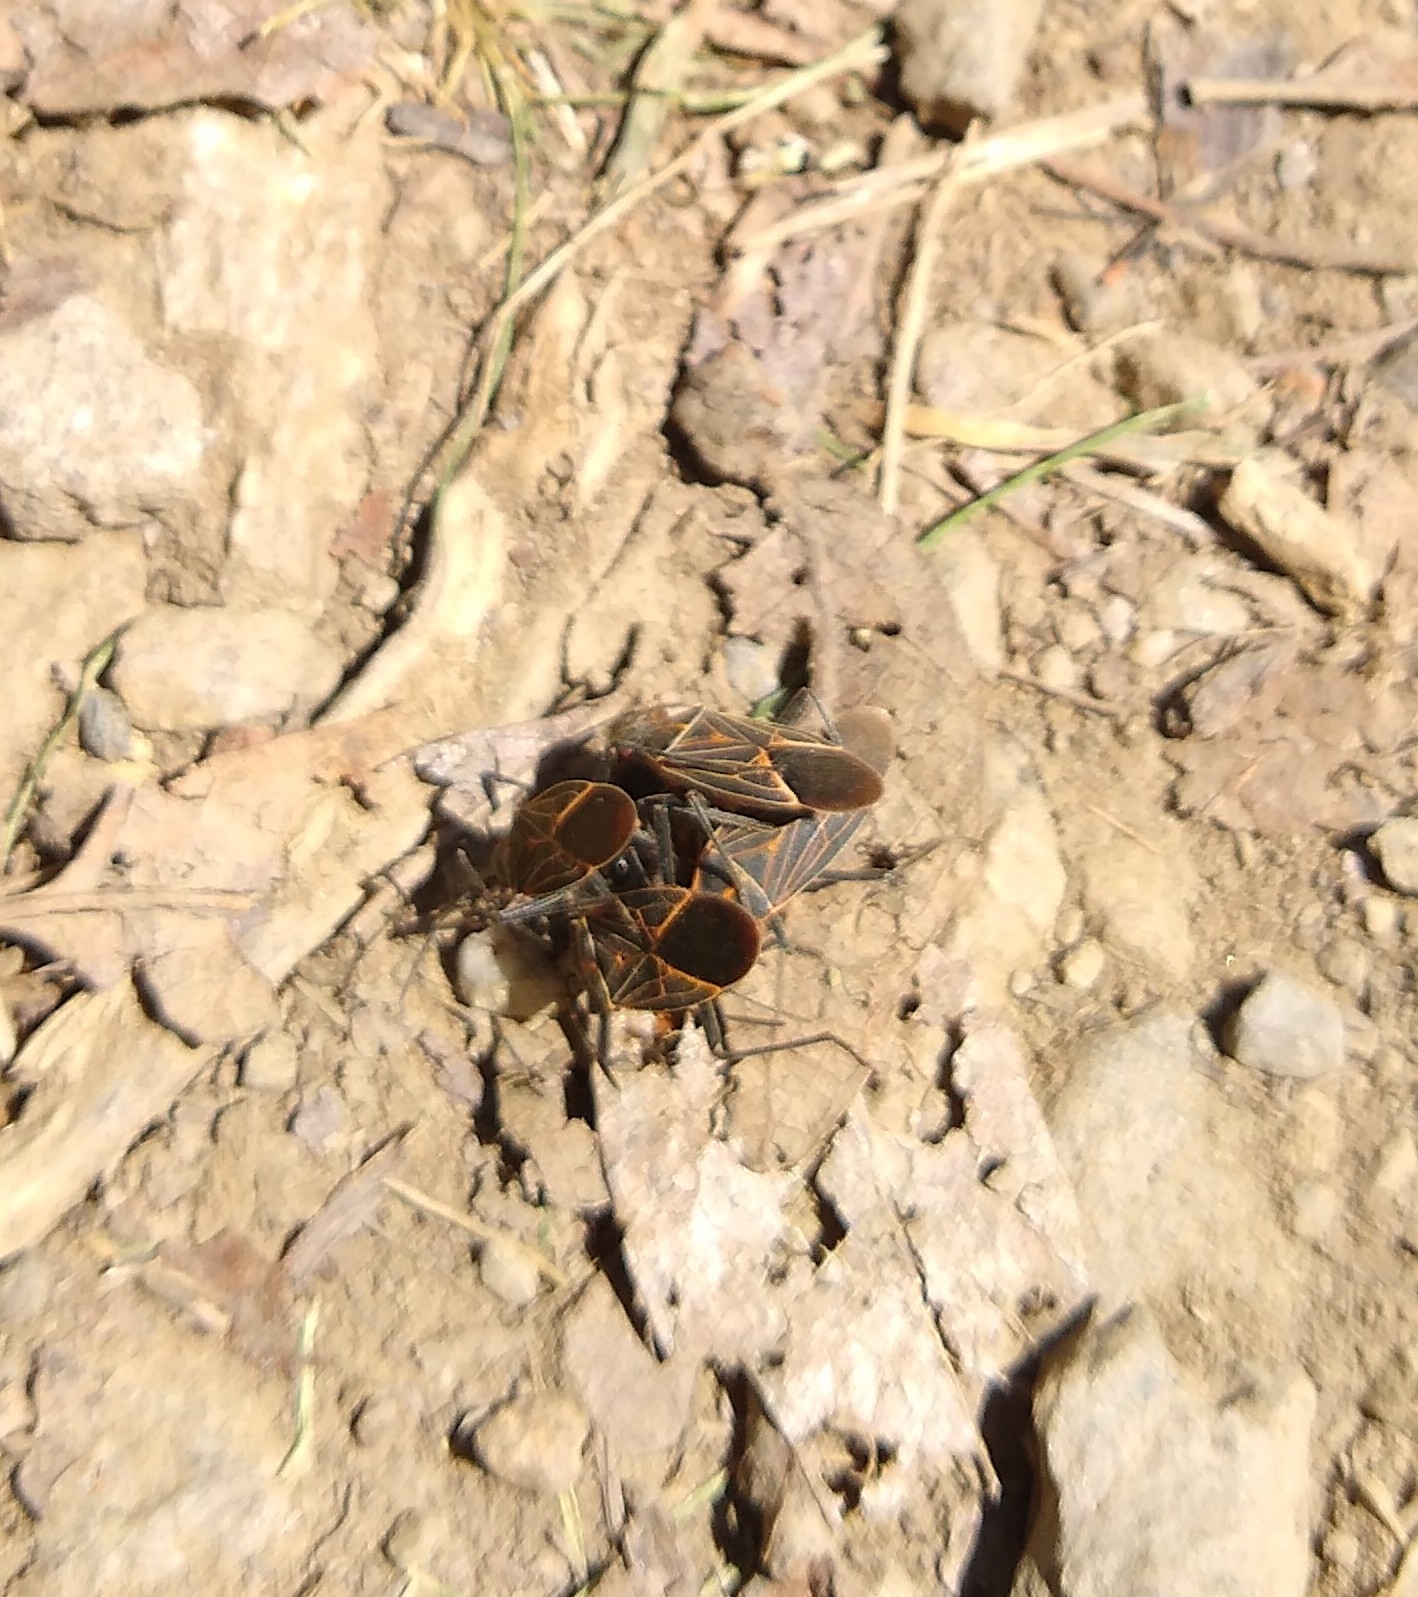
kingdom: Animalia
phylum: Arthropoda
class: Insecta
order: Hemiptera
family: Rhopalidae
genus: Boisea
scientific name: Boisea rubrolineata
